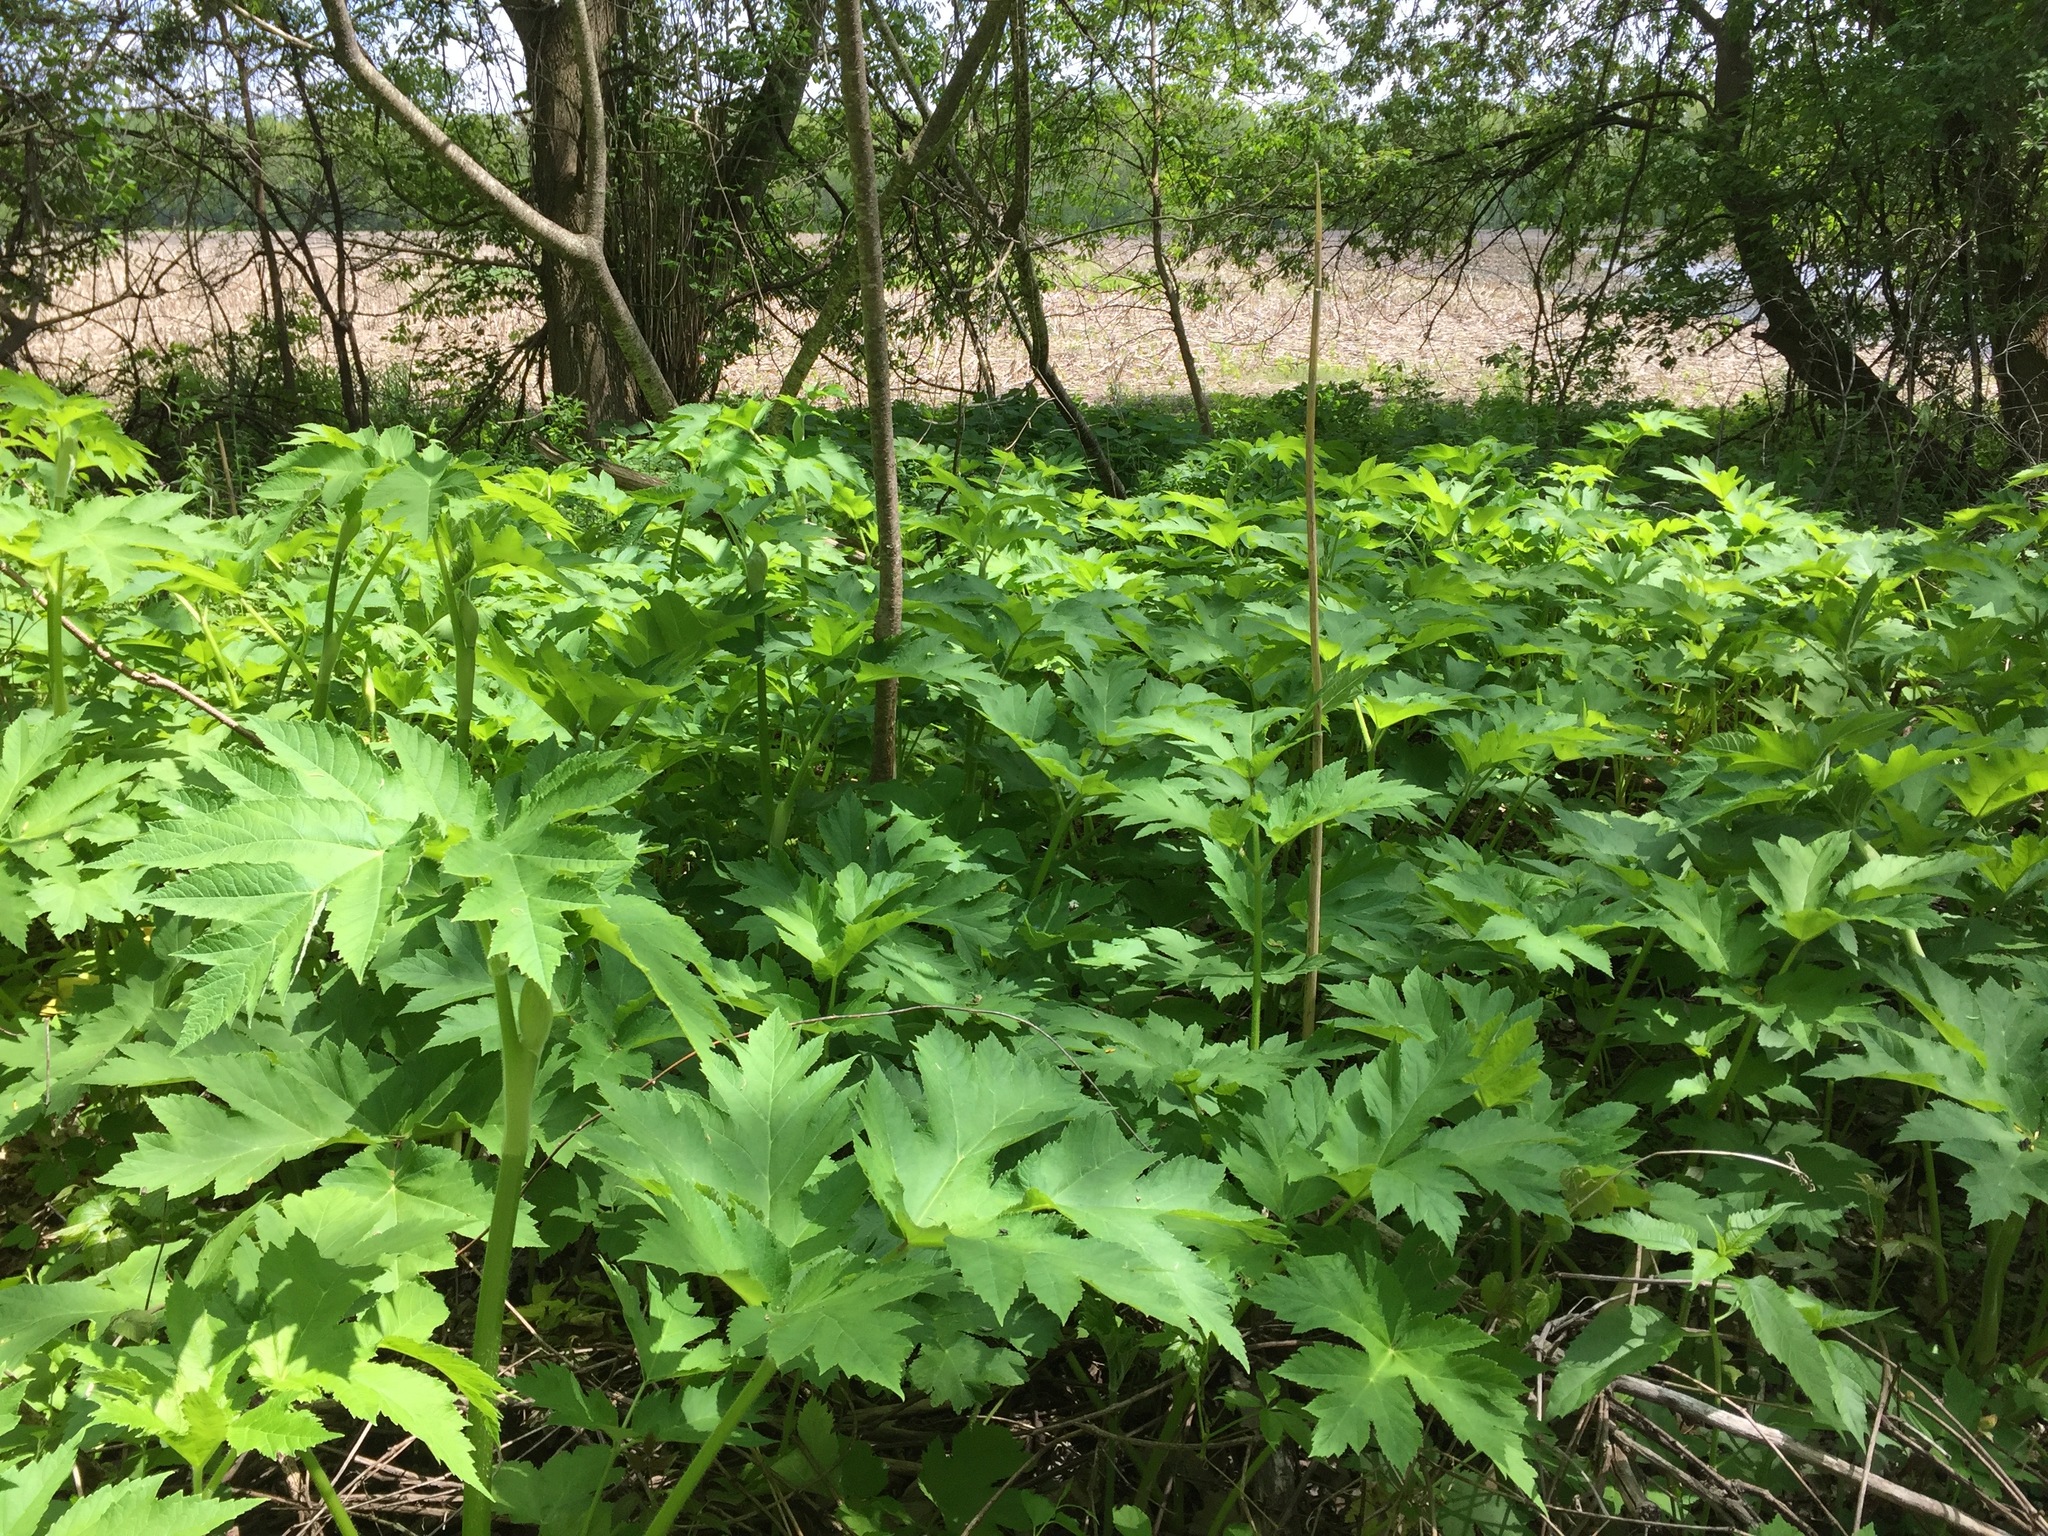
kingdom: Plantae
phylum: Tracheophyta
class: Magnoliopsida
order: Apiales
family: Apiaceae
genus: Heracleum
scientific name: Heracleum maximum
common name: American cow parsnip
